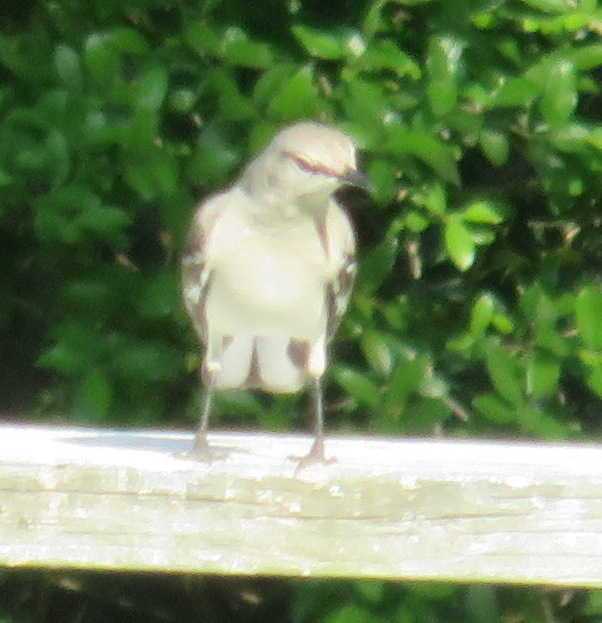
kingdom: Animalia
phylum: Chordata
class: Aves
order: Passeriformes
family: Mimidae
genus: Mimus
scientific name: Mimus polyglottos
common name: Northern mockingbird
